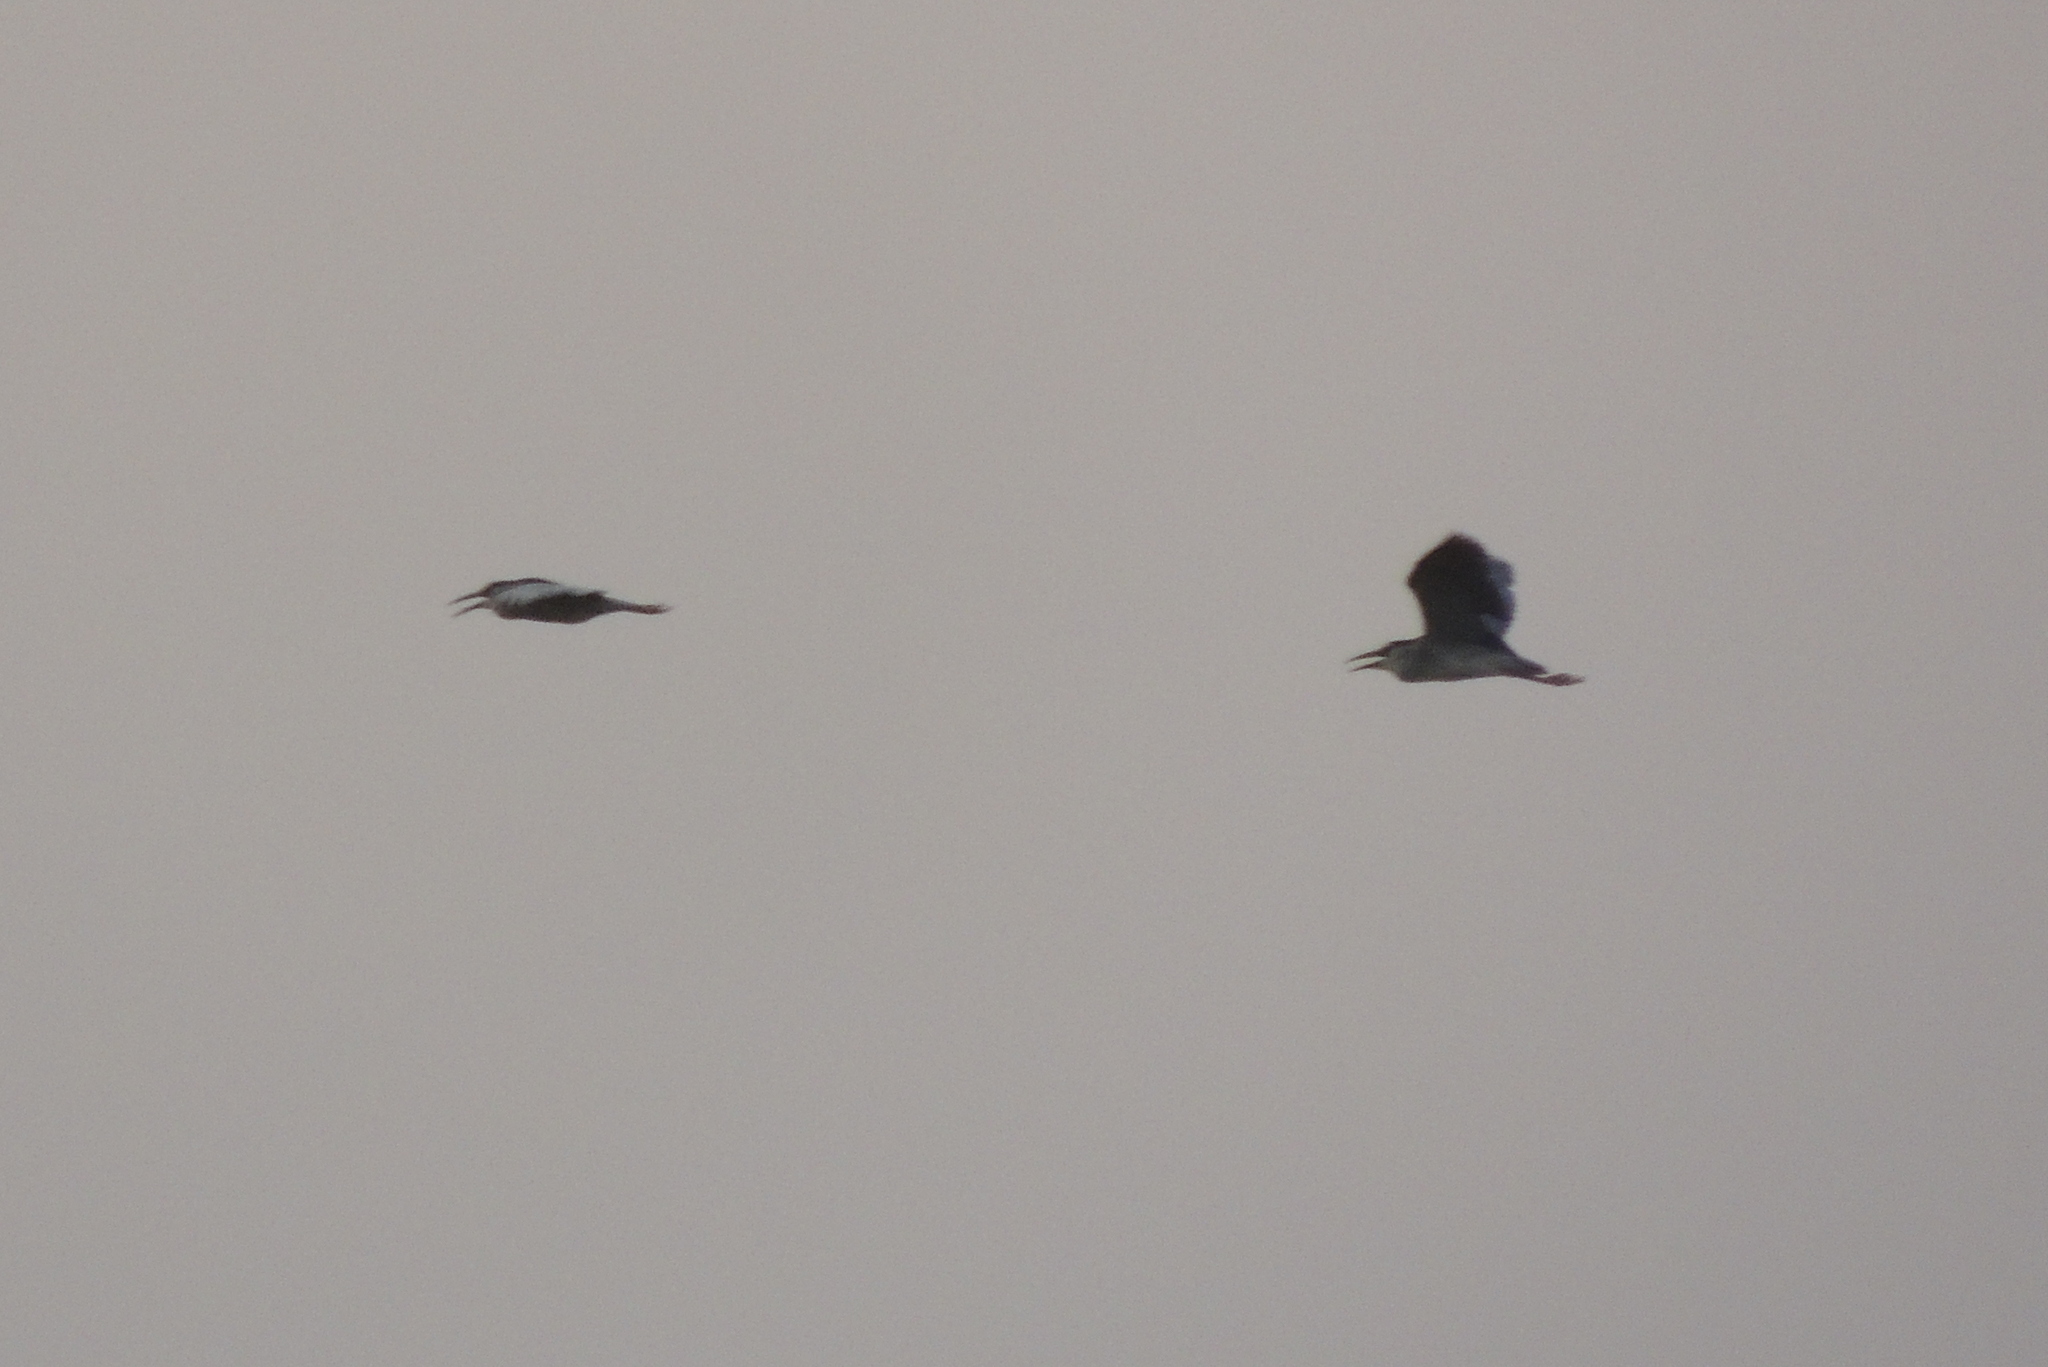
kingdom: Animalia
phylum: Chordata
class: Aves
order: Pelecaniformes
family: Ardeidae
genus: Nycticorax
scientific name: Nycticorax nycticorax
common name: Black-crowned night heron
